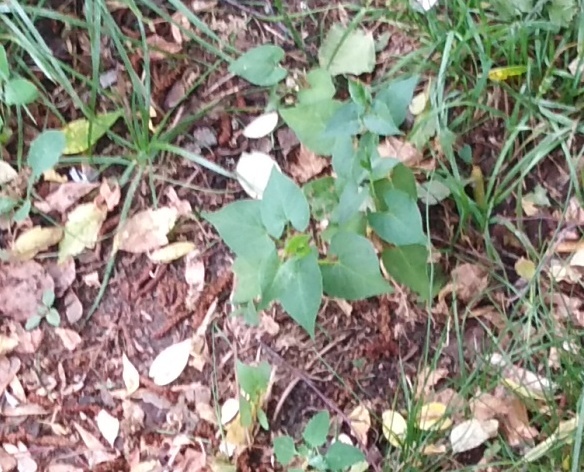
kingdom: Plantae
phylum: Tracheophyta
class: Magnoliopsida
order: Caryophyllales
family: Polygonaceae
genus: Fallopia
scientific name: Fallopia convolvulus
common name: Black bindweed
